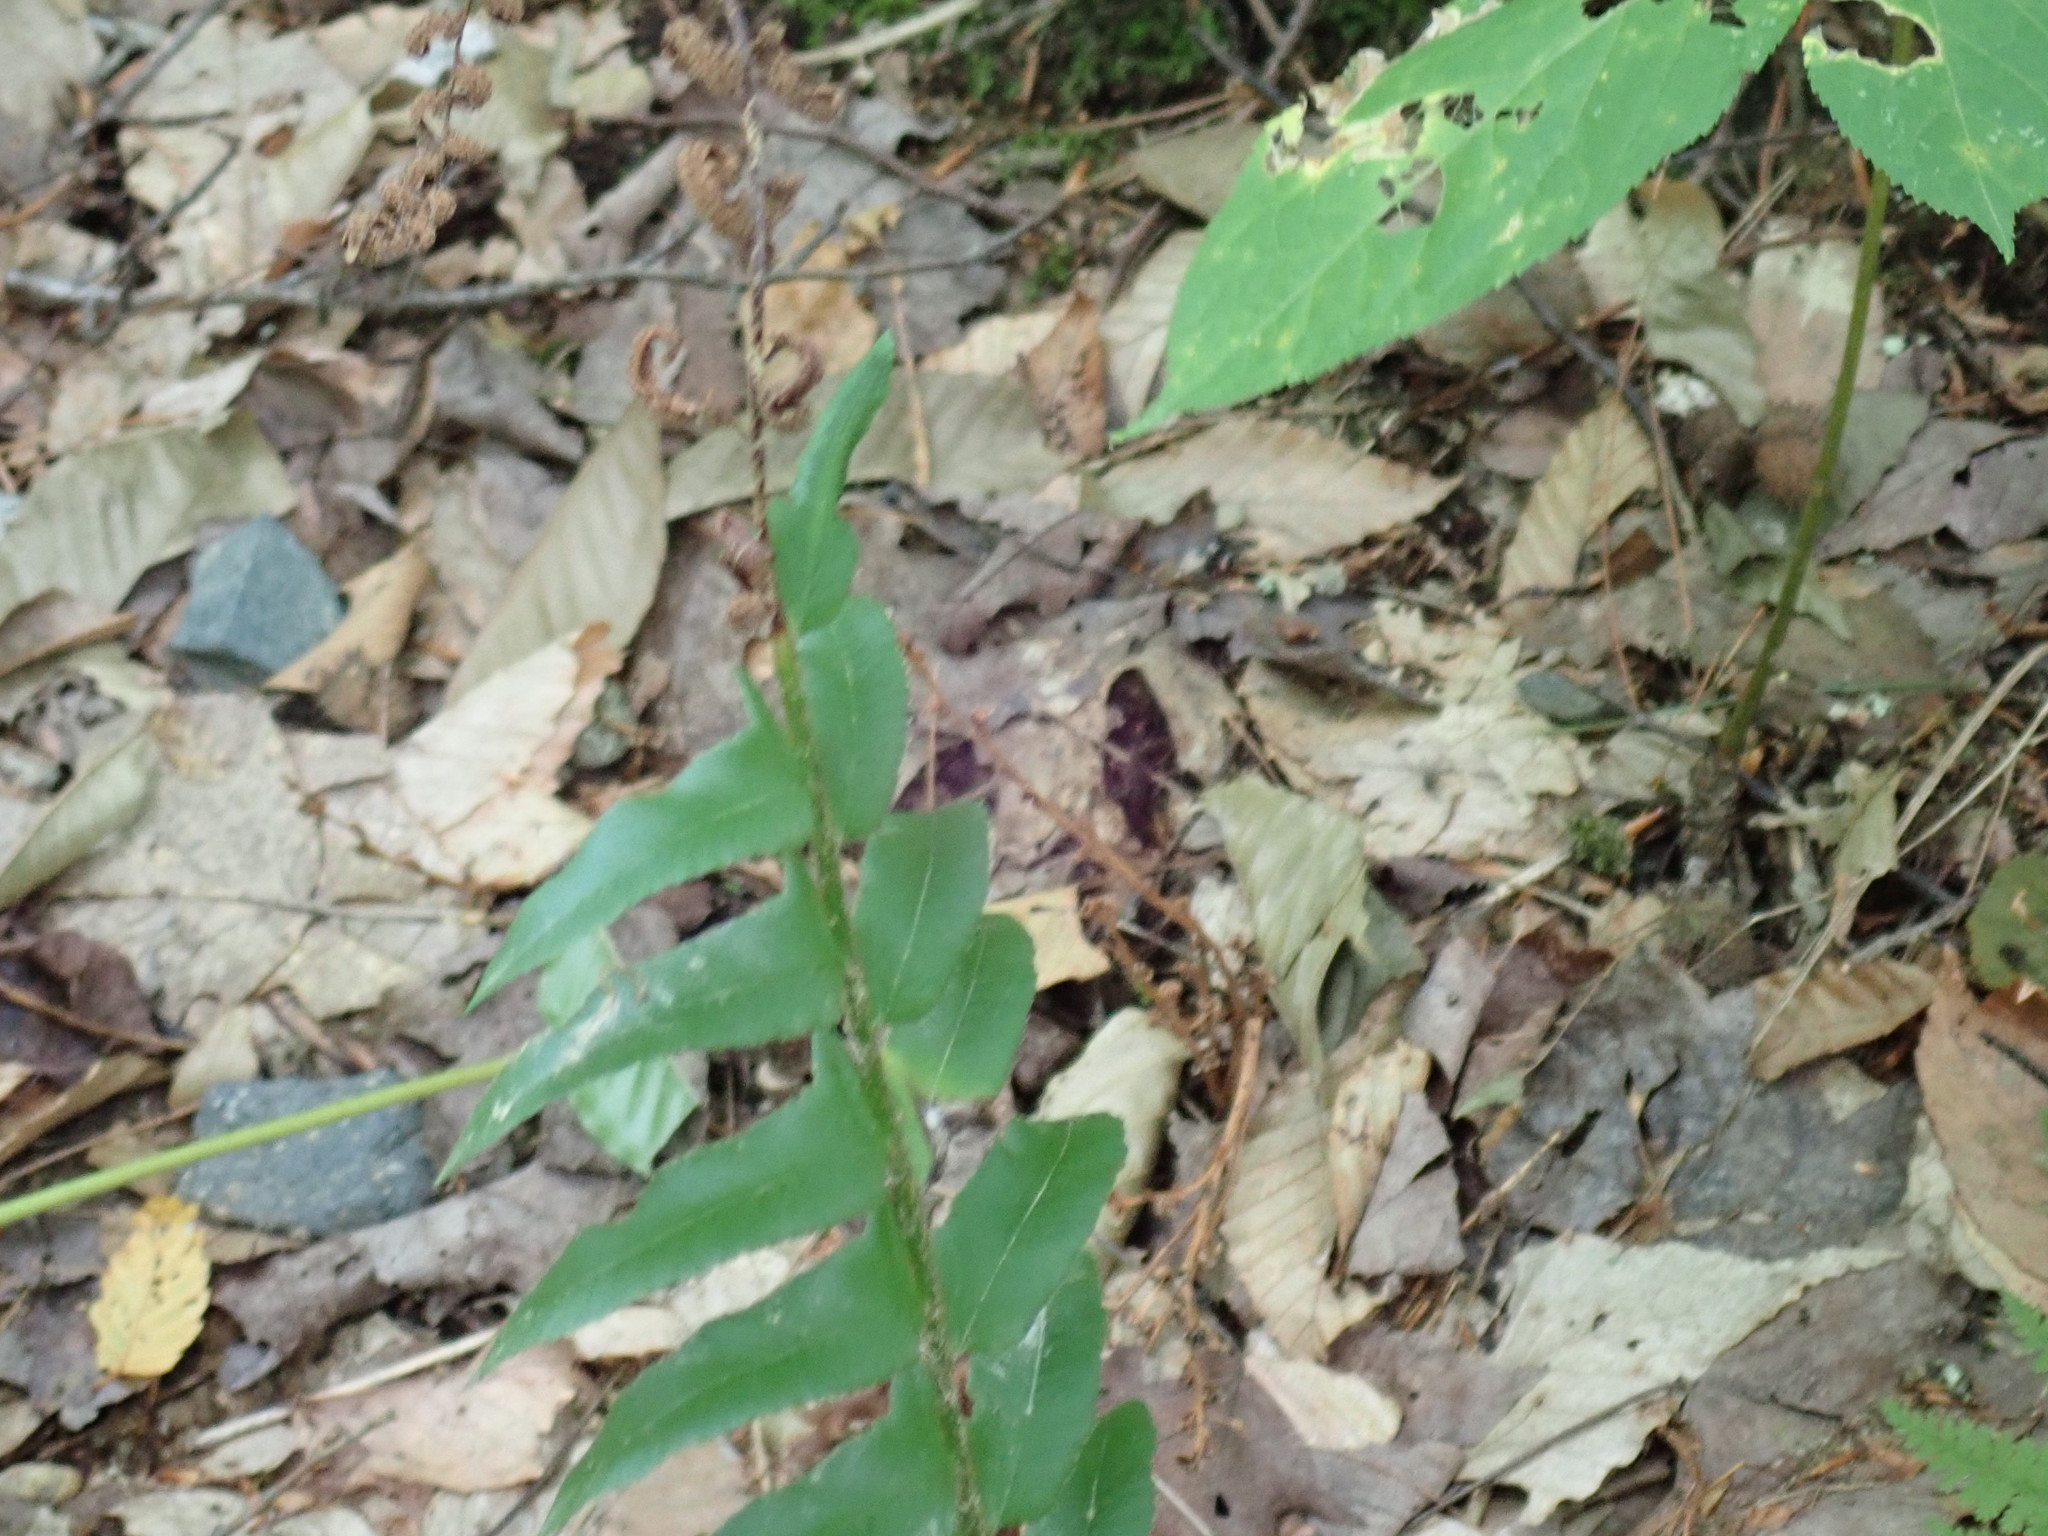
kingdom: Plantae
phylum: Tracheophyta
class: Polypodiopsida
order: Polypodiales
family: Dryopteridaceae
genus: Polystichum
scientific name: Polystichum acrostichoides
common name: Christmas fern
